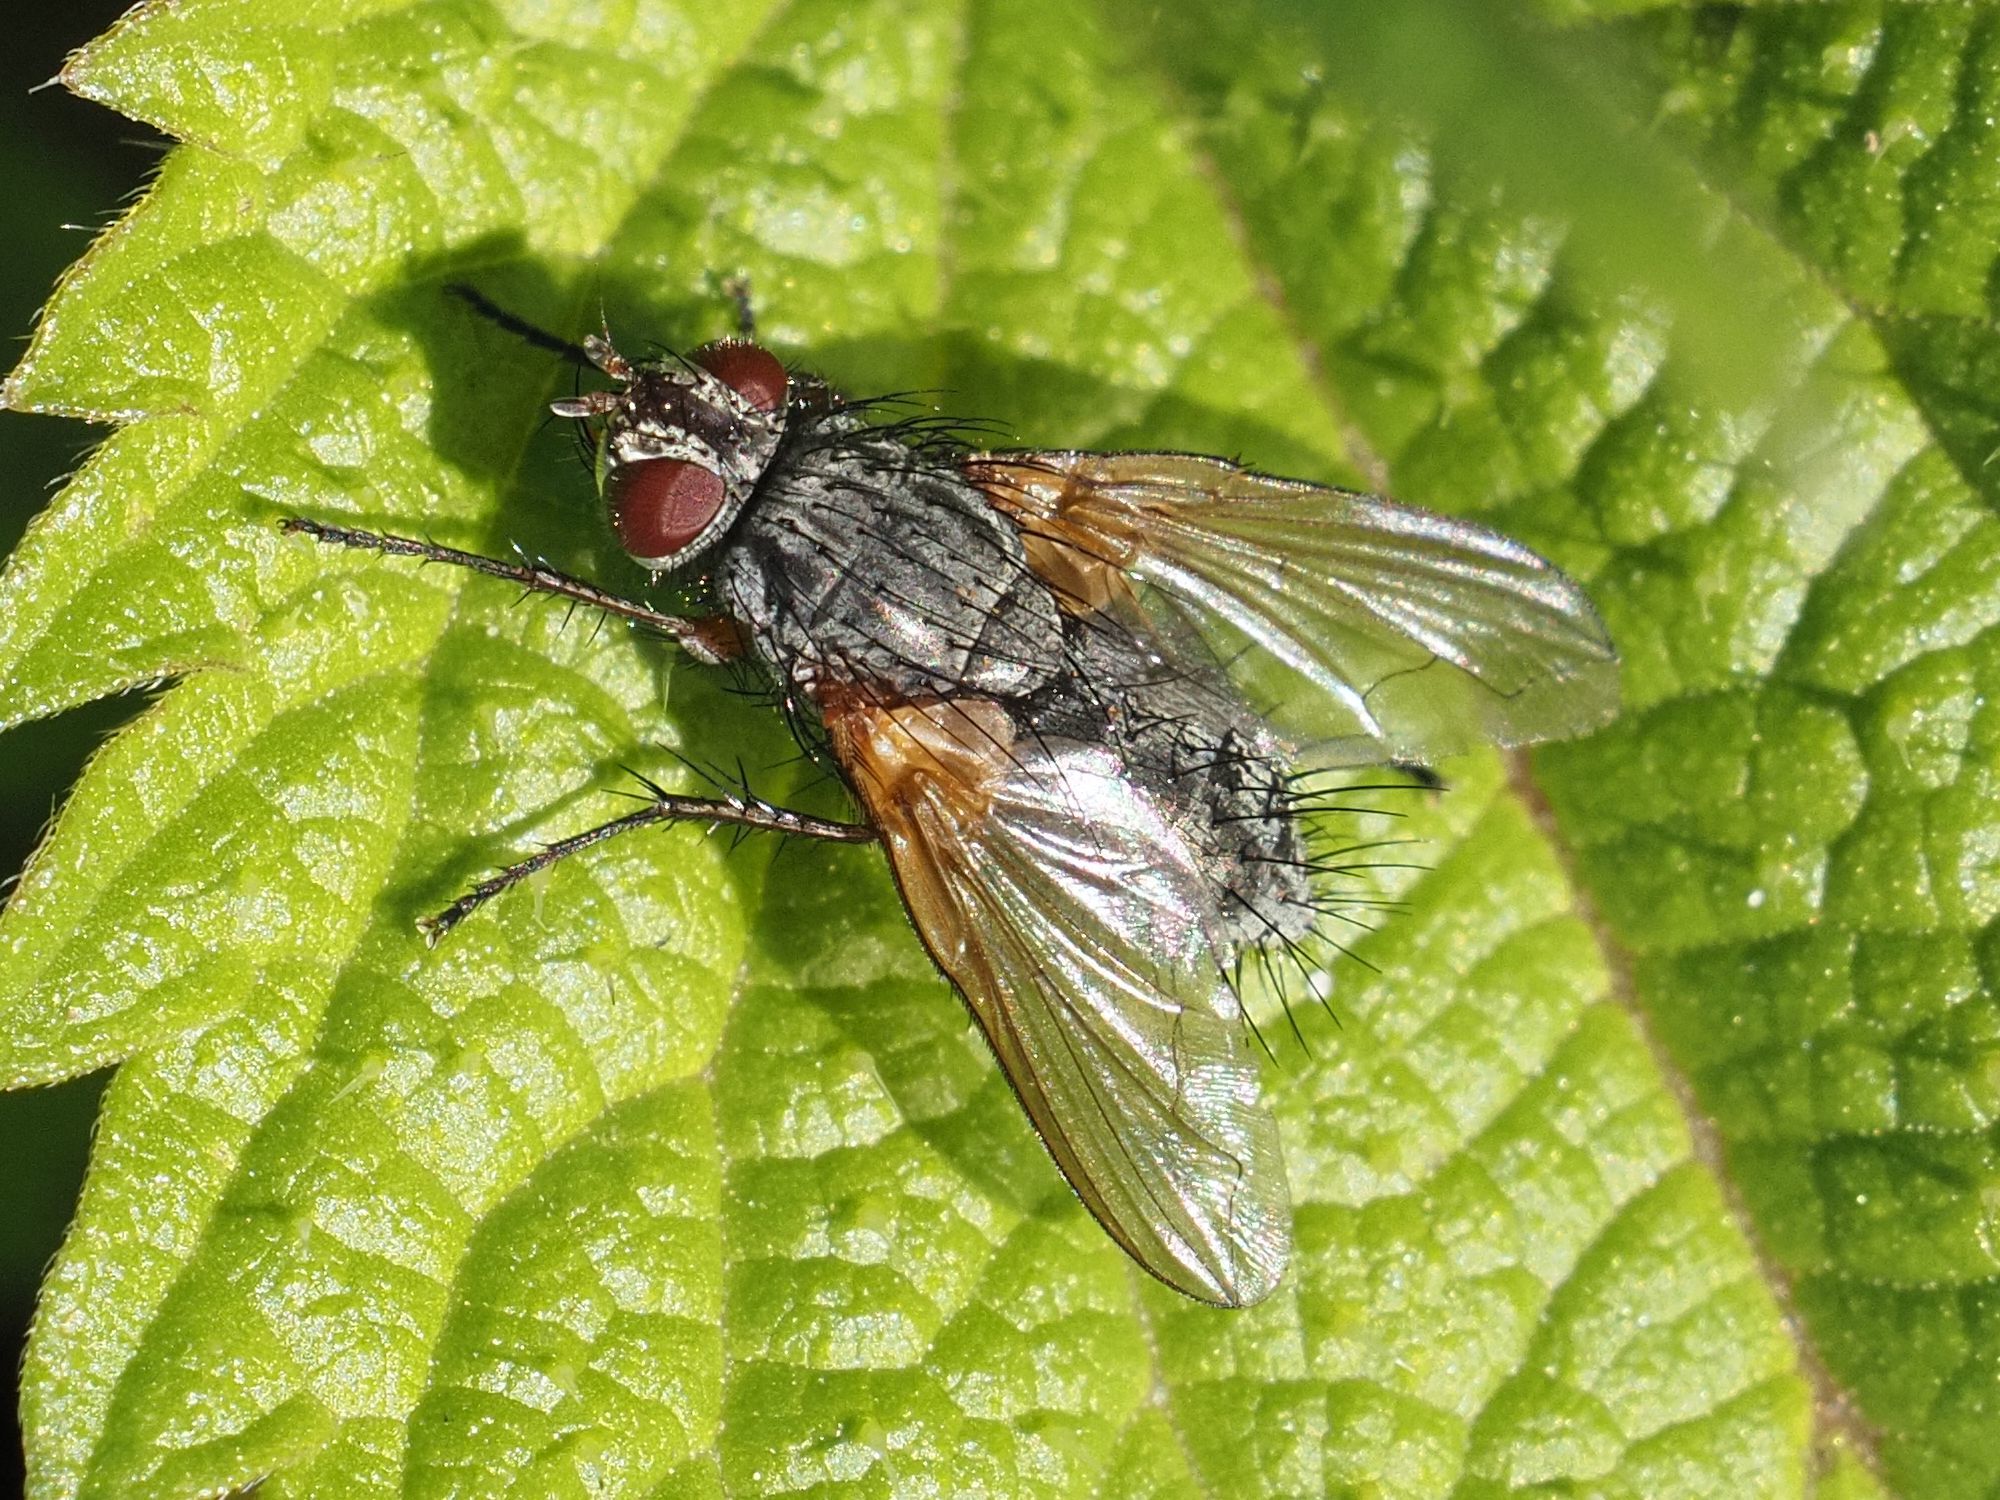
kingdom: Animalia
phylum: Arthropoda
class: Insecta
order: Diptera
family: Tachinidae
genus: Macquartia
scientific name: Macquartia grisea
